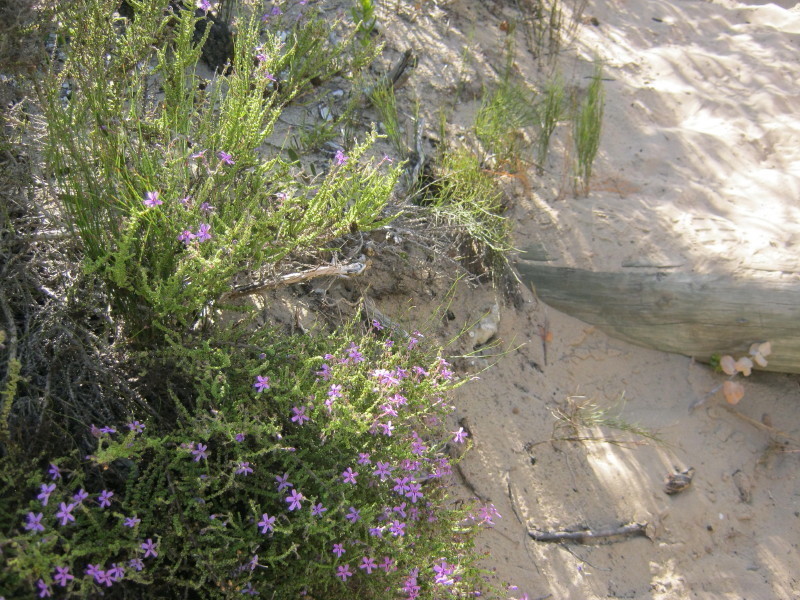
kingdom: Plantae
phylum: Tracheophyta
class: Magnoliopsida
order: Lamiales
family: Scrophulariaceae
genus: Jamesbrittenia
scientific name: Jamesbrittenia microphylla
